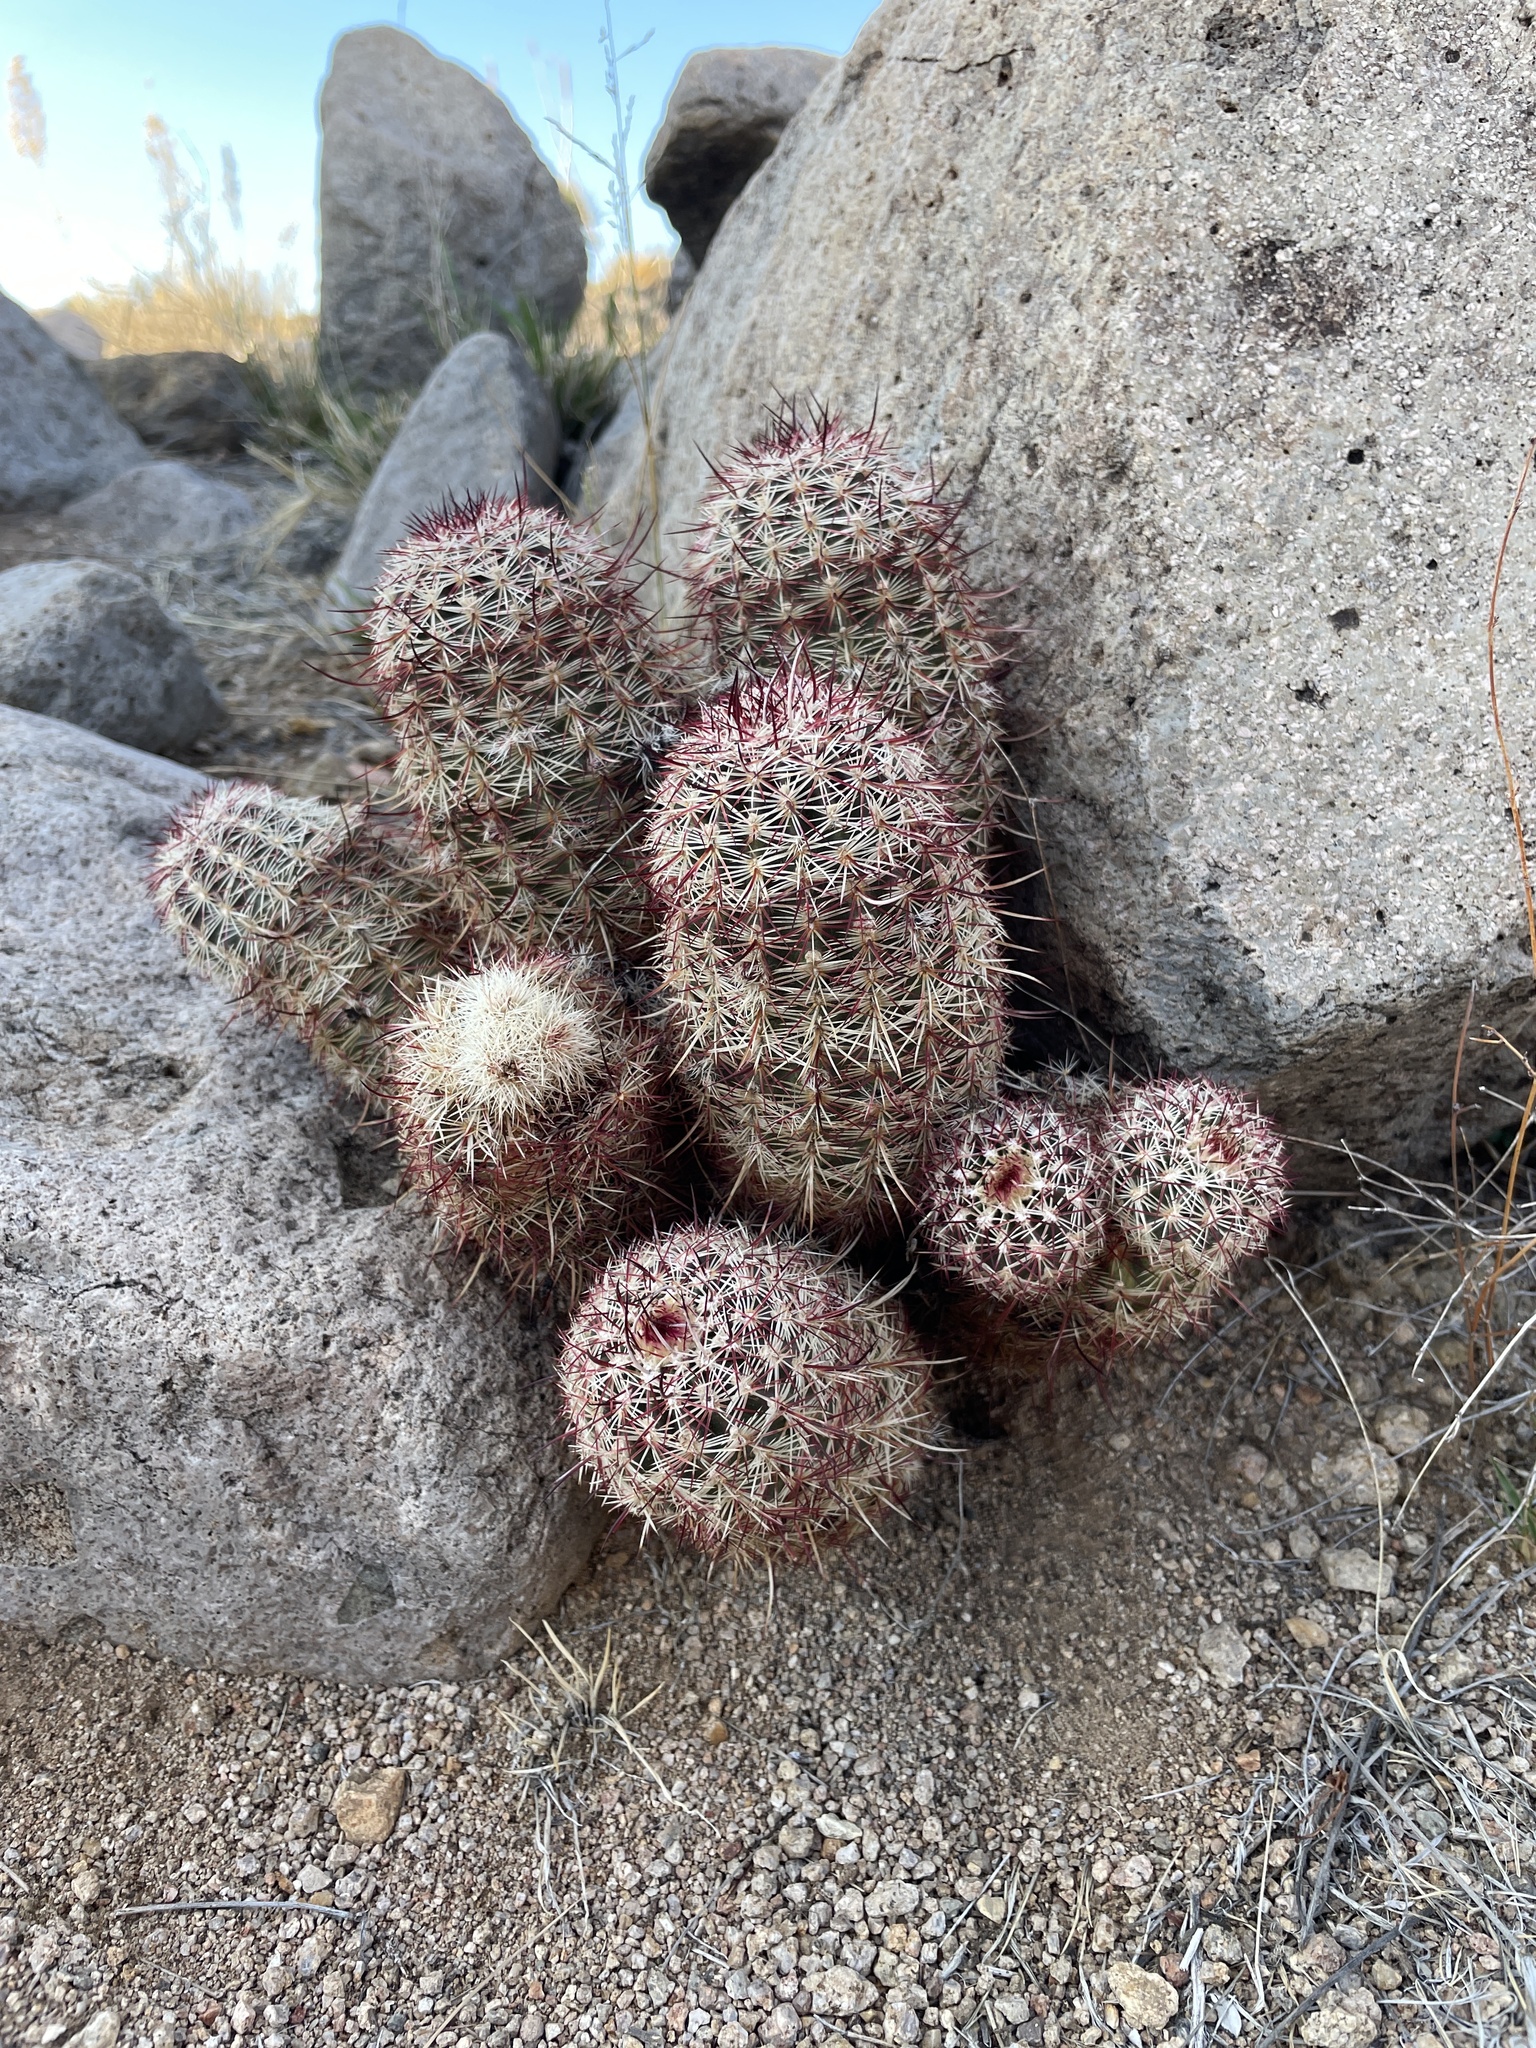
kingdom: Plantae
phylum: Tracheophyta
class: Magnoliopsida
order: Caryophyllales
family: Cactaceae
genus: Echinocereus
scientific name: Echinocereus viridiflorus
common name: Nylon hedgehog cactus
